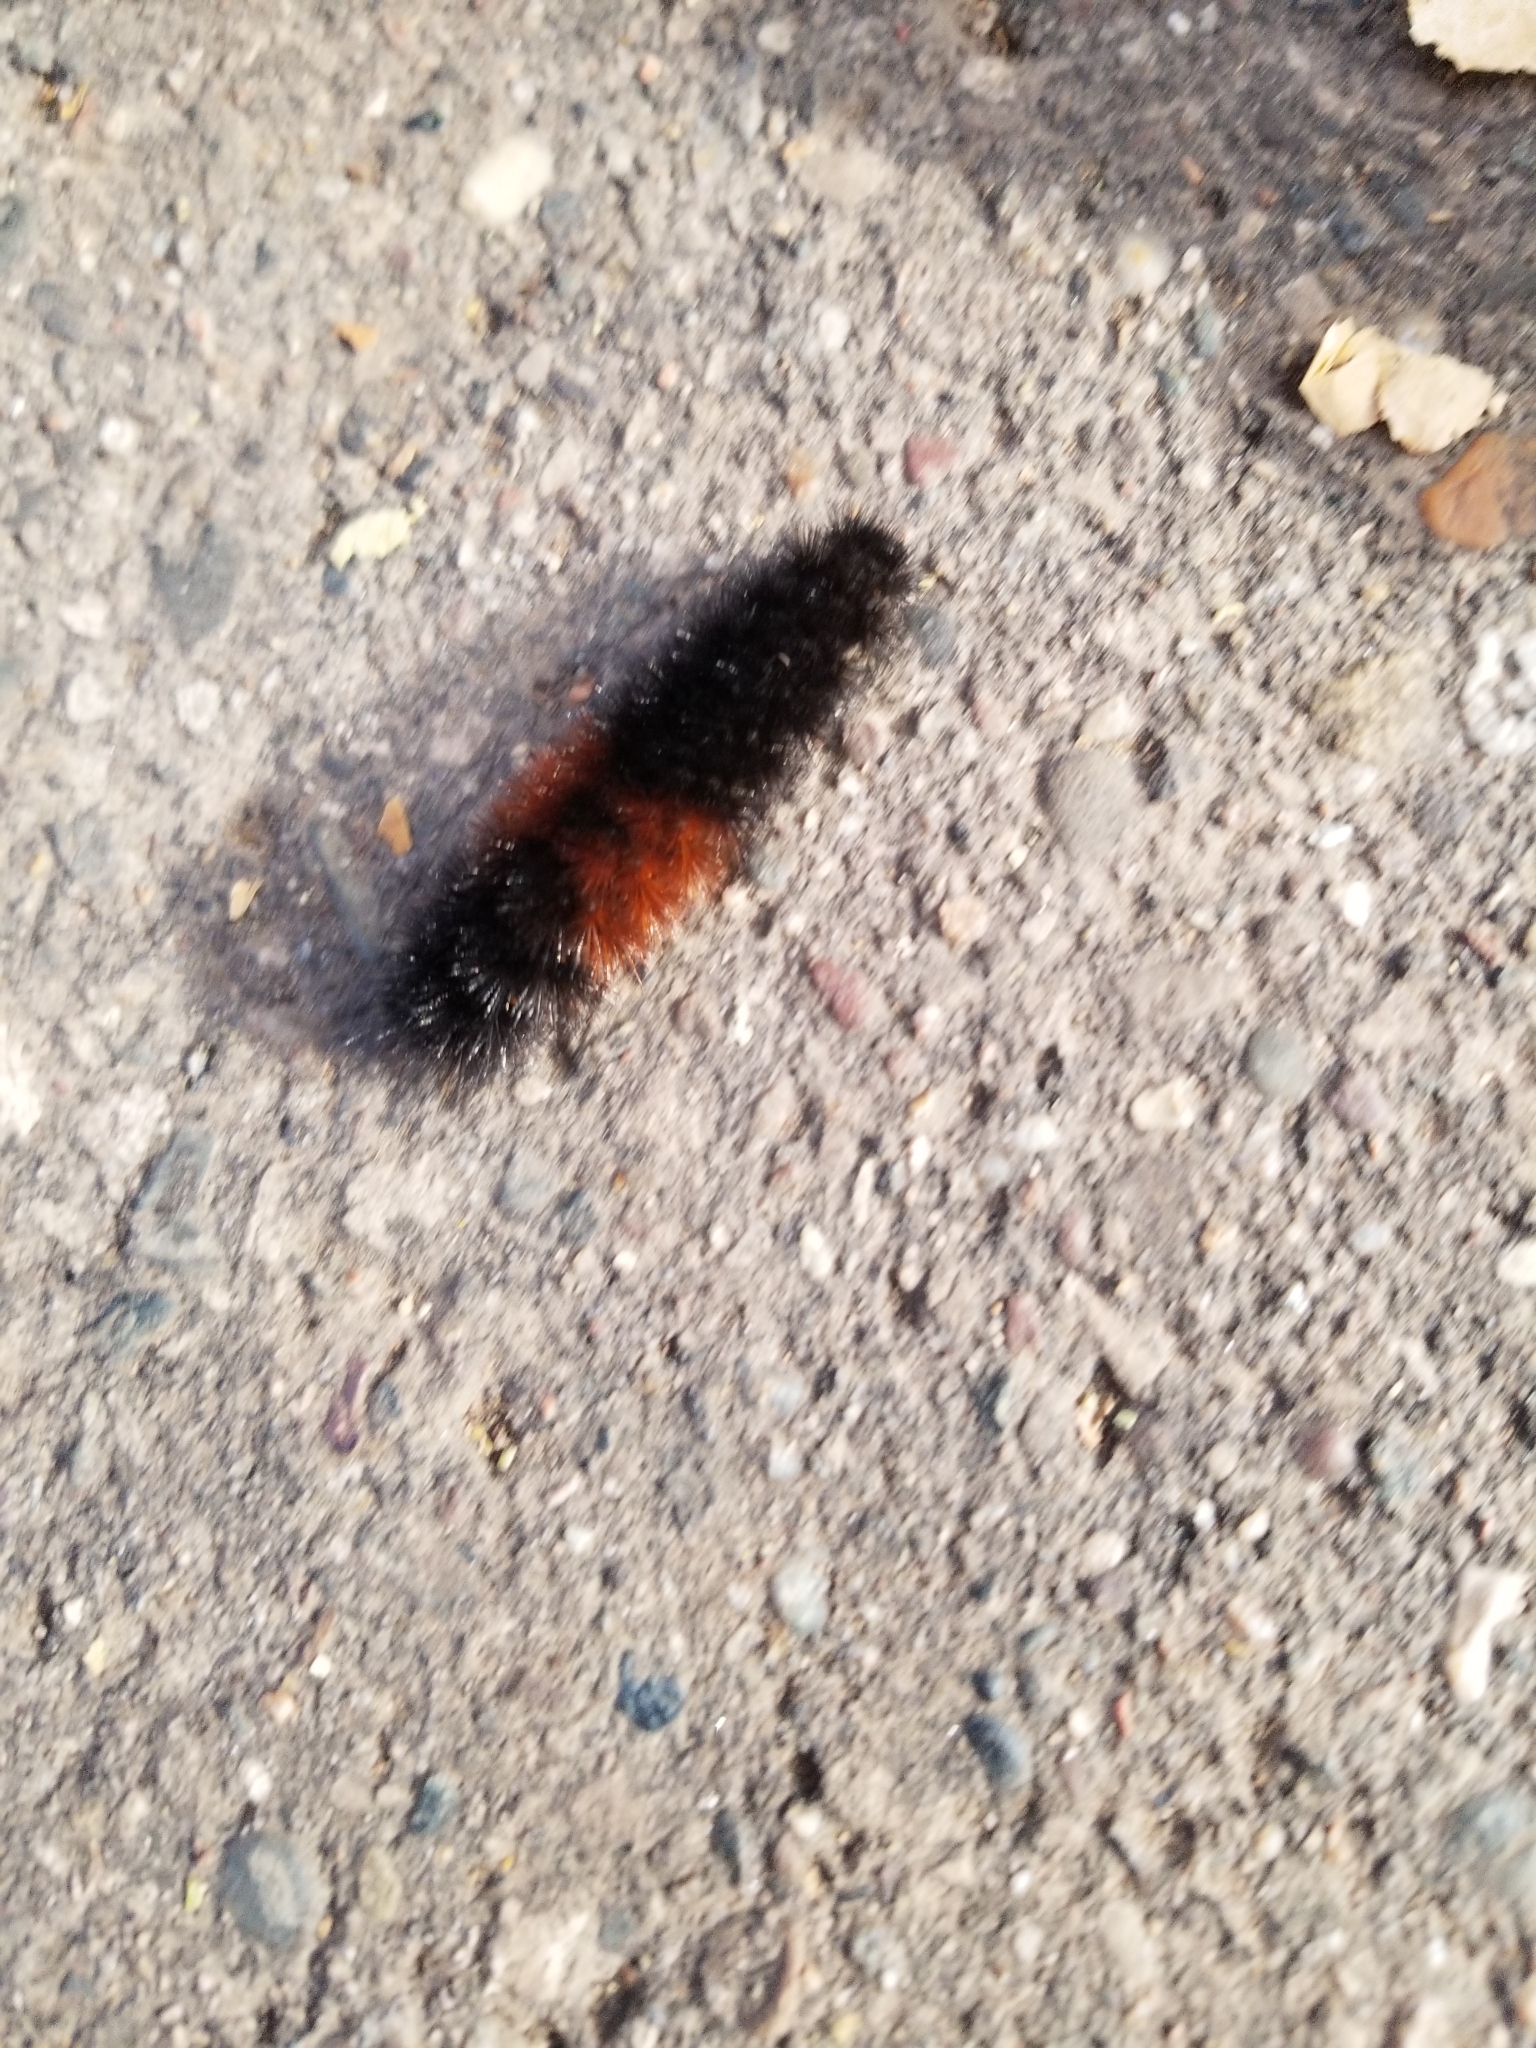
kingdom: Animalia
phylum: Arthropoda
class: Insecta
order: Lepidoptera
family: Erebidae
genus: Pyrrharctia
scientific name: Pyrrharctia isabella
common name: Isabella tiger moth
